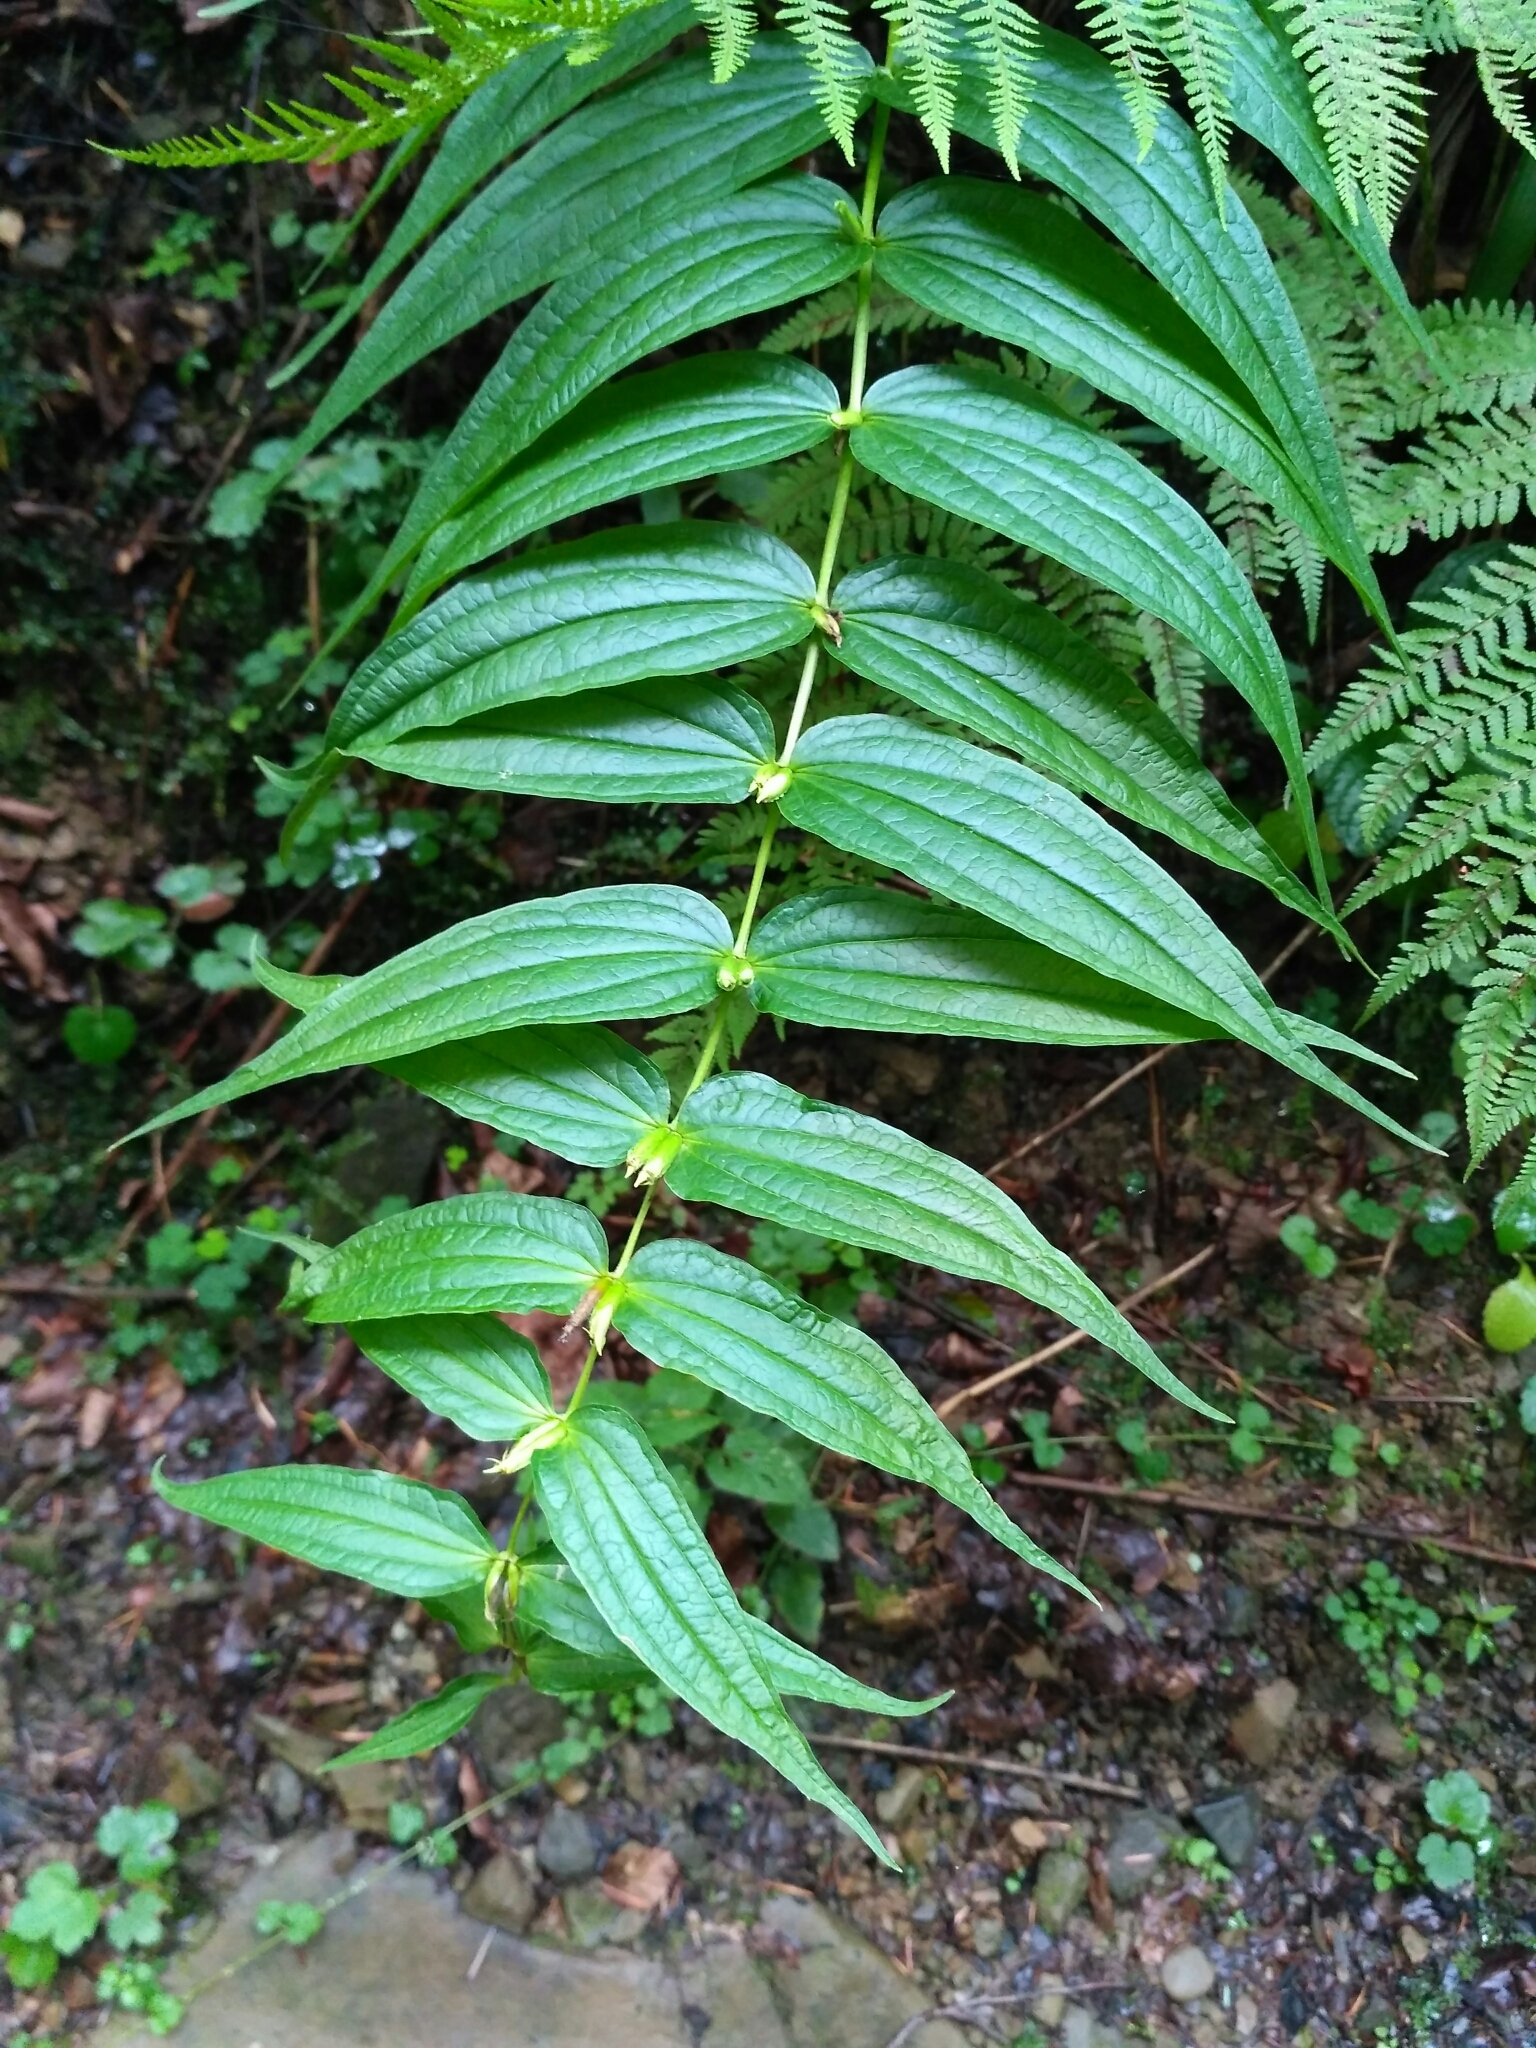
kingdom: Plantae
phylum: Tracheophyta
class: Magnoliopsida
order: Gentianales
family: Gentianaceae
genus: Gentiana
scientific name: Gentiana asclepiadea
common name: Willow gentian
